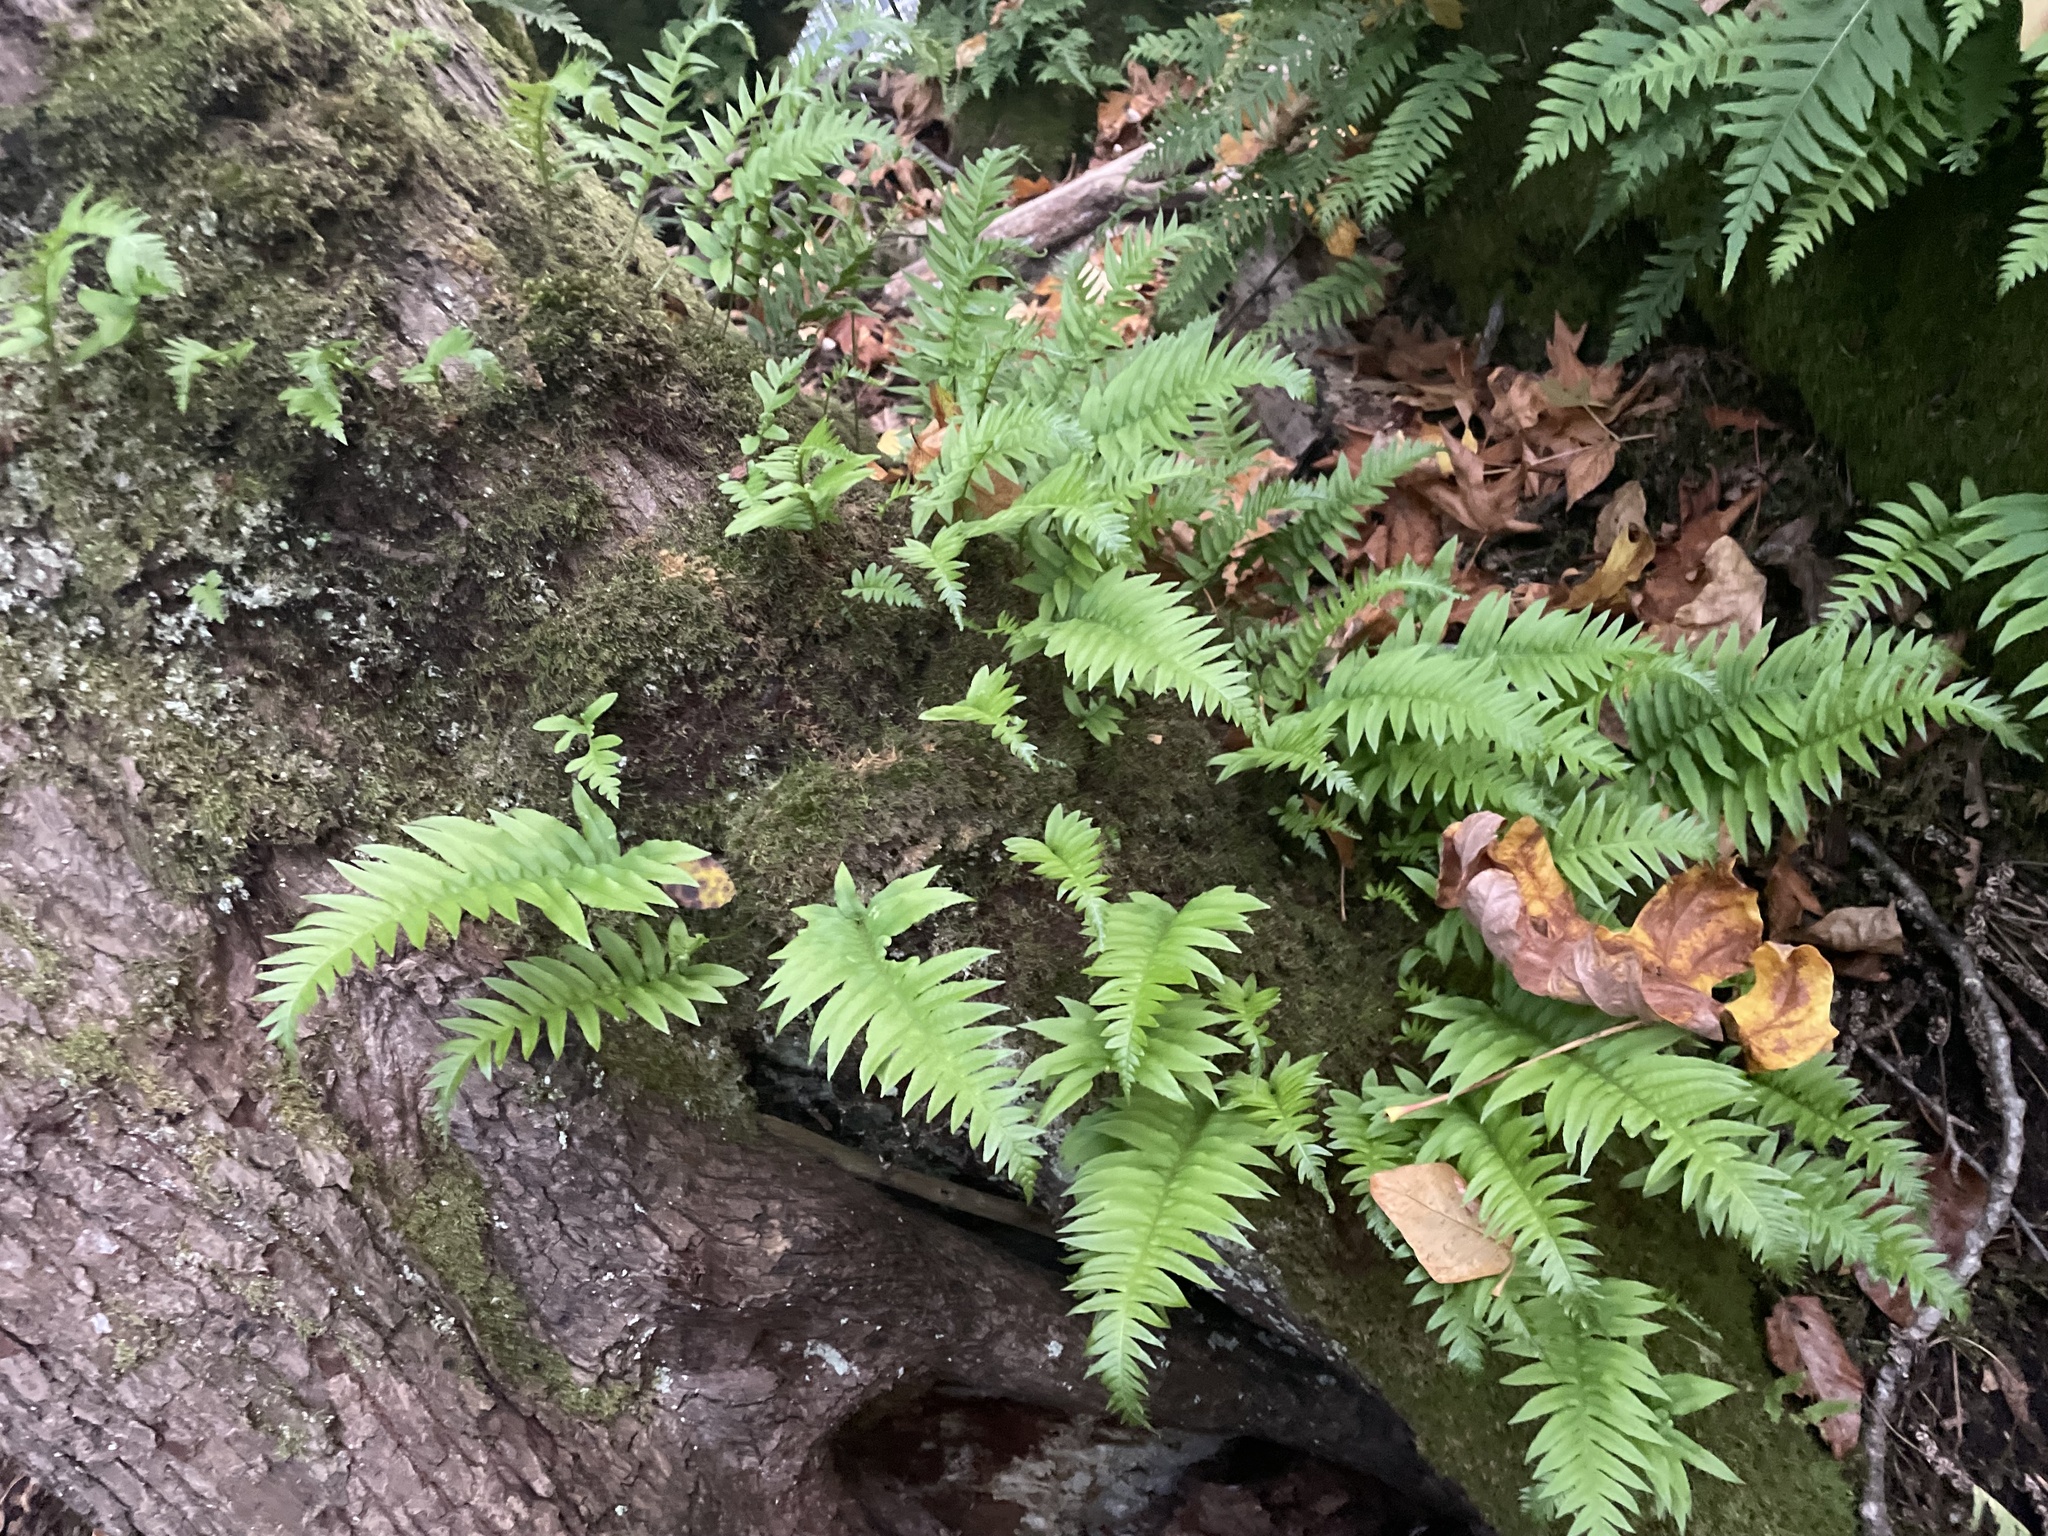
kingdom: Plantae
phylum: Tracheophyta
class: Polypodiopsida
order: Polypodiales
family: Polypodiaceae
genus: Polypodium
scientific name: Polypodium glycyrrhiza
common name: Licorice fern
